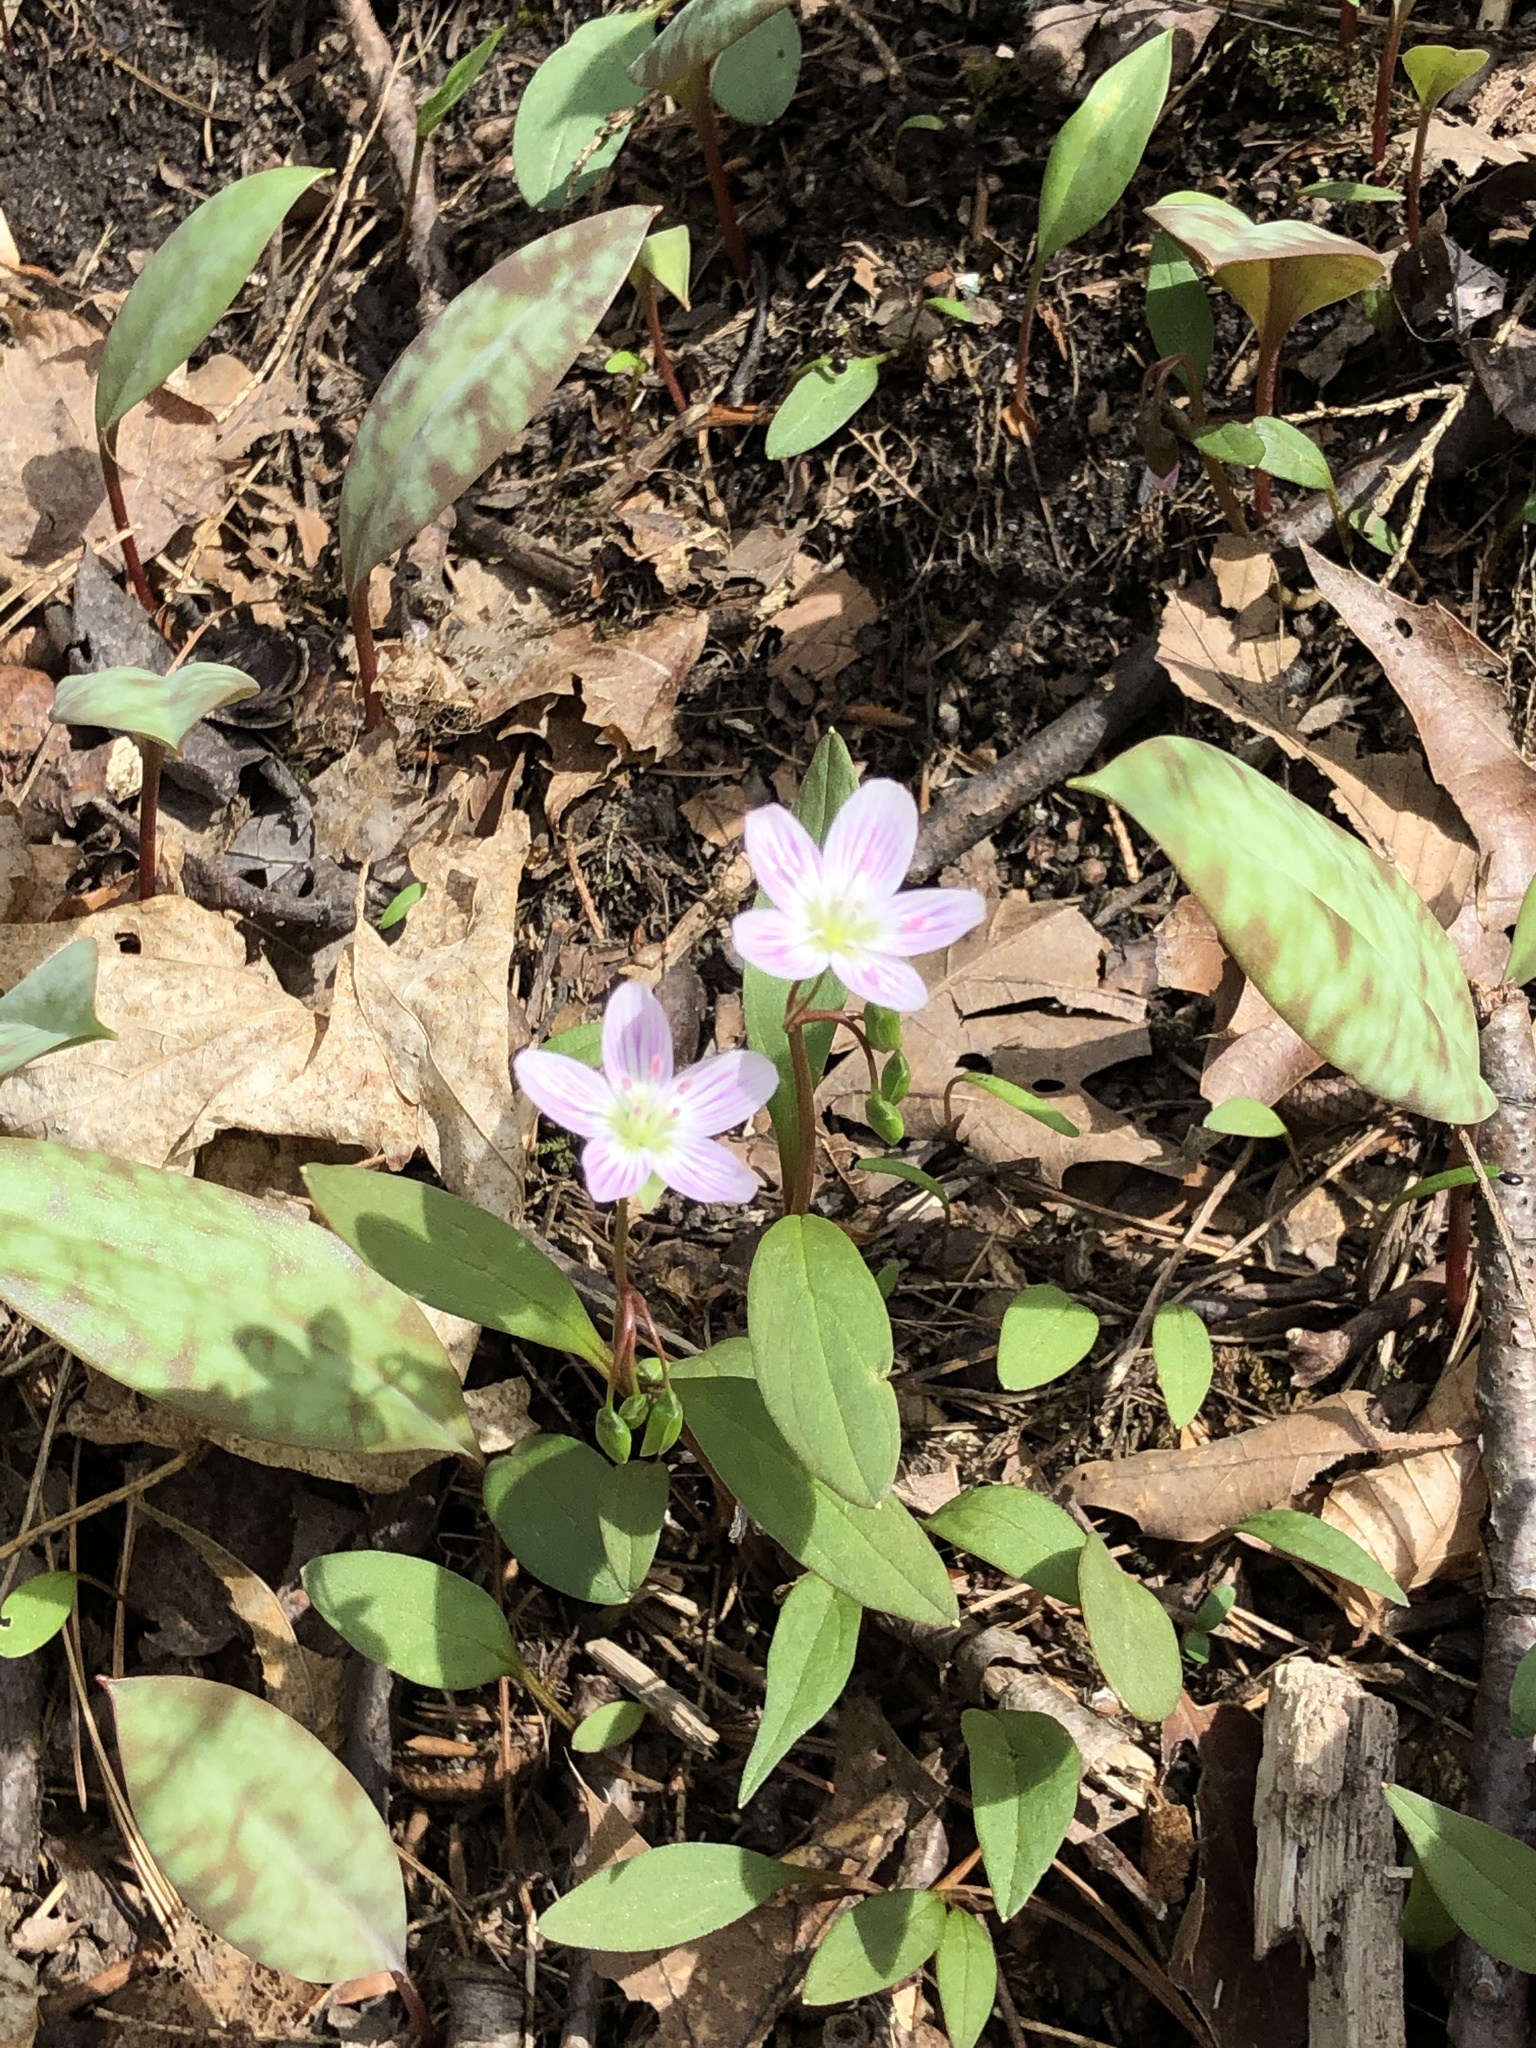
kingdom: Plantae
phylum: Tracheophyta
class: Magnoliopsida
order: Caryophyllales
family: Montiaceae
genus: Claytonia
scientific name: Claytonia caroliniana
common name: Carolina spring beauty
